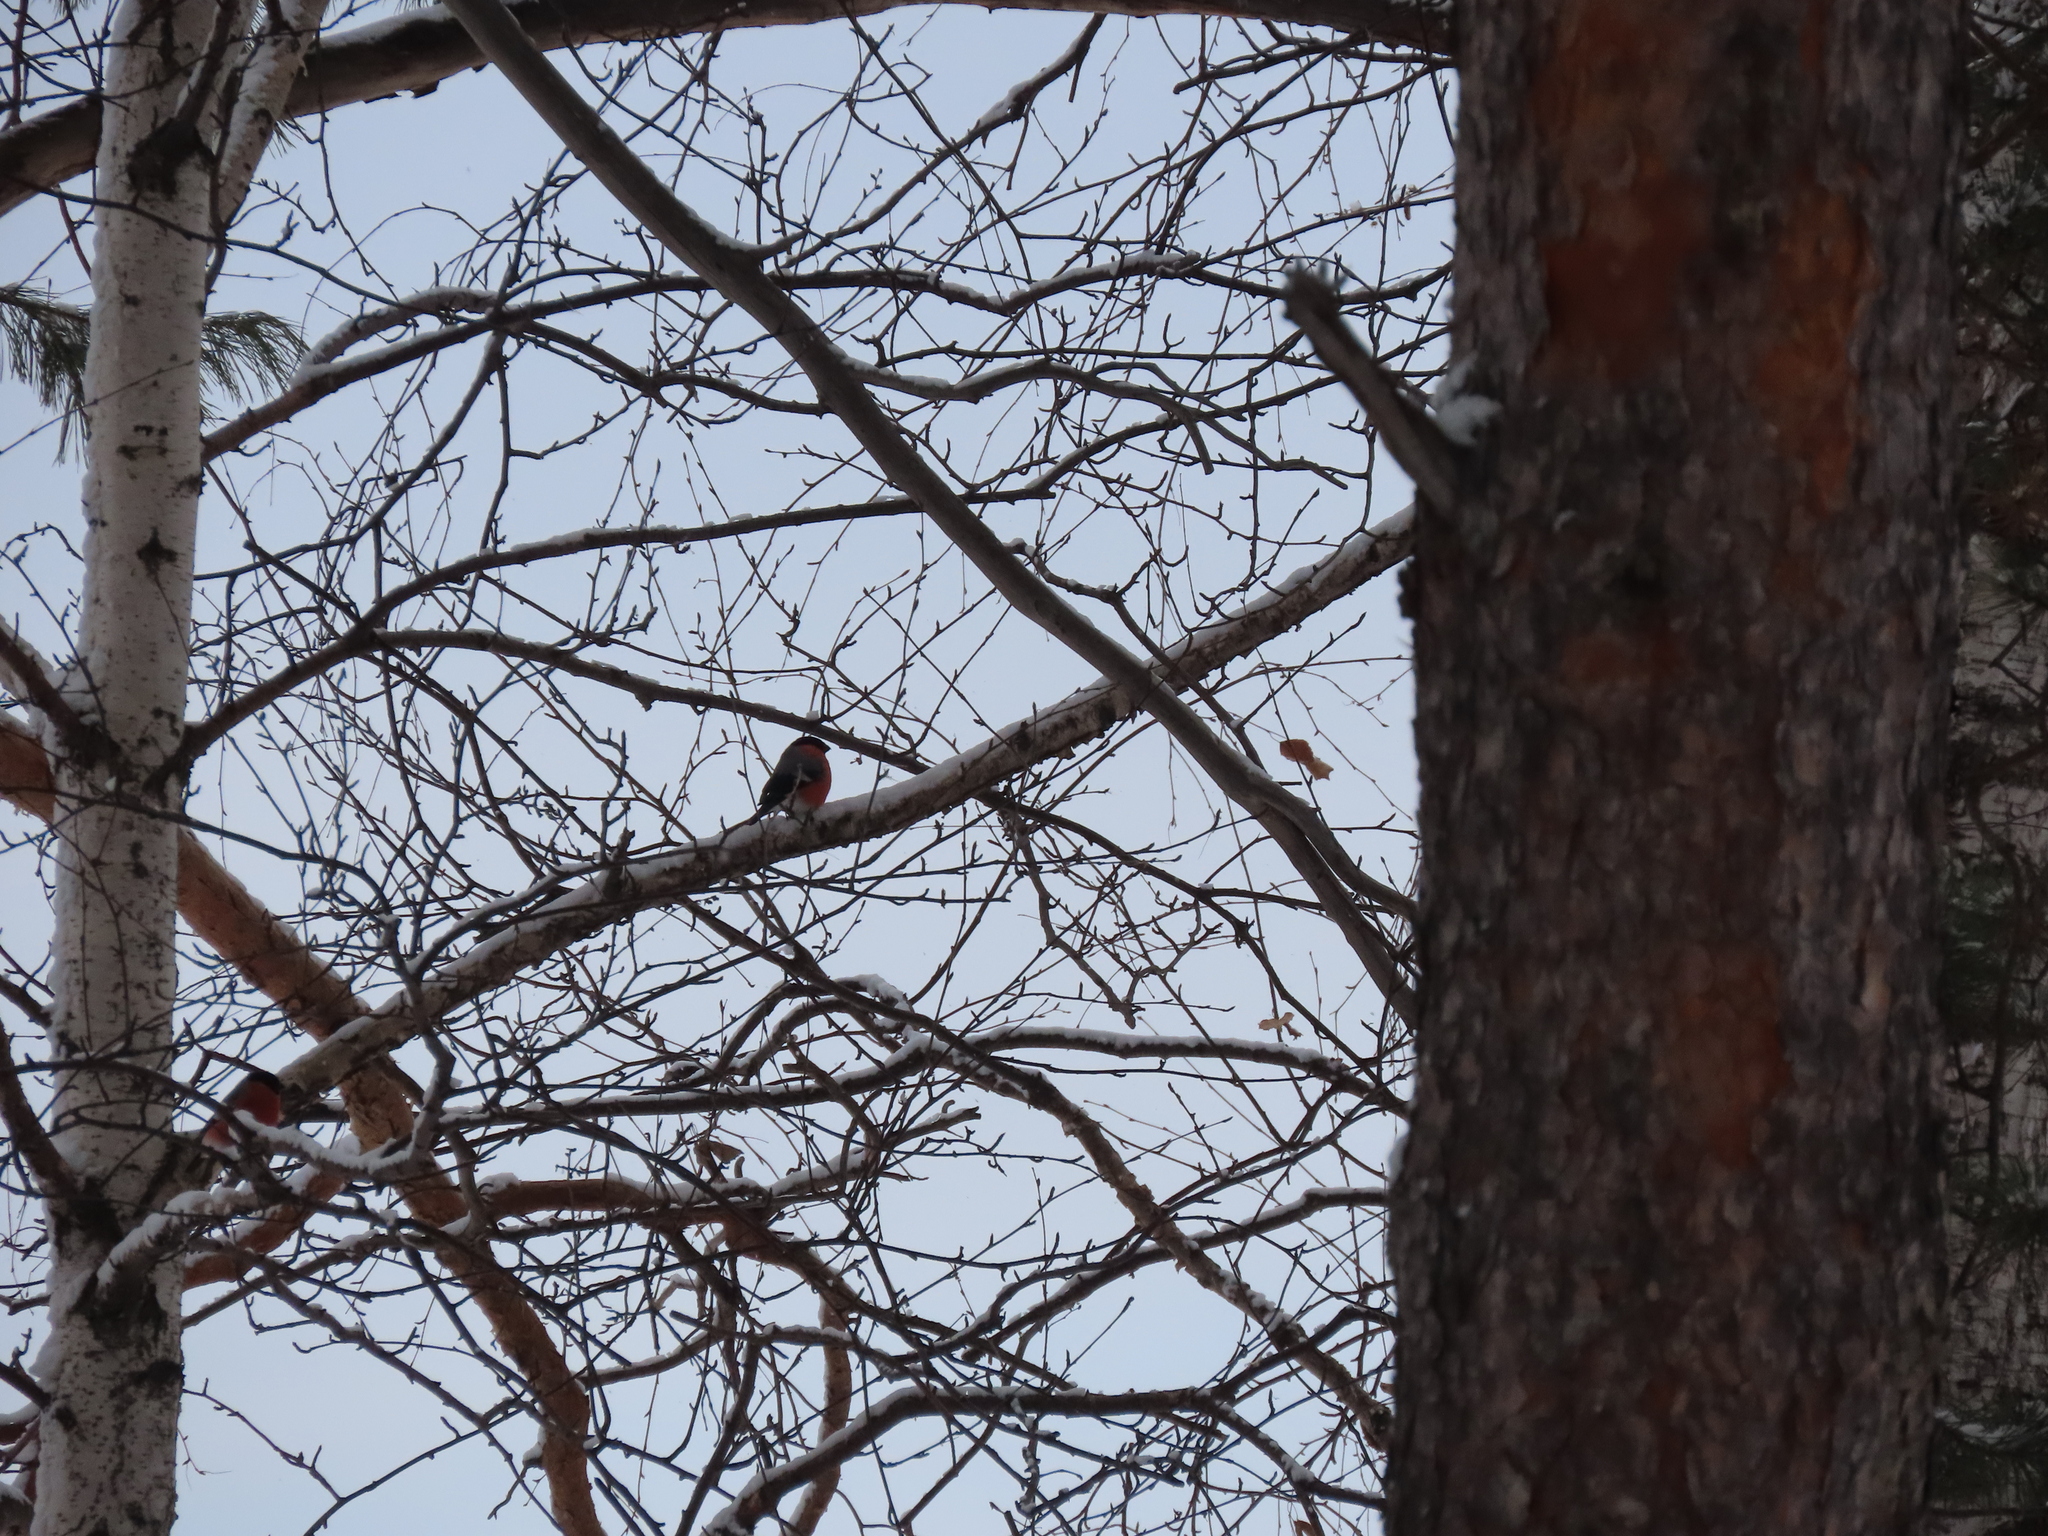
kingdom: Animalia
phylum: Chordata
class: Aves
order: Passeriformes
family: Fringillidae
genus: Pyrrhula
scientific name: Pyrrhula pyrrhula
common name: Eurasian bullfinch
